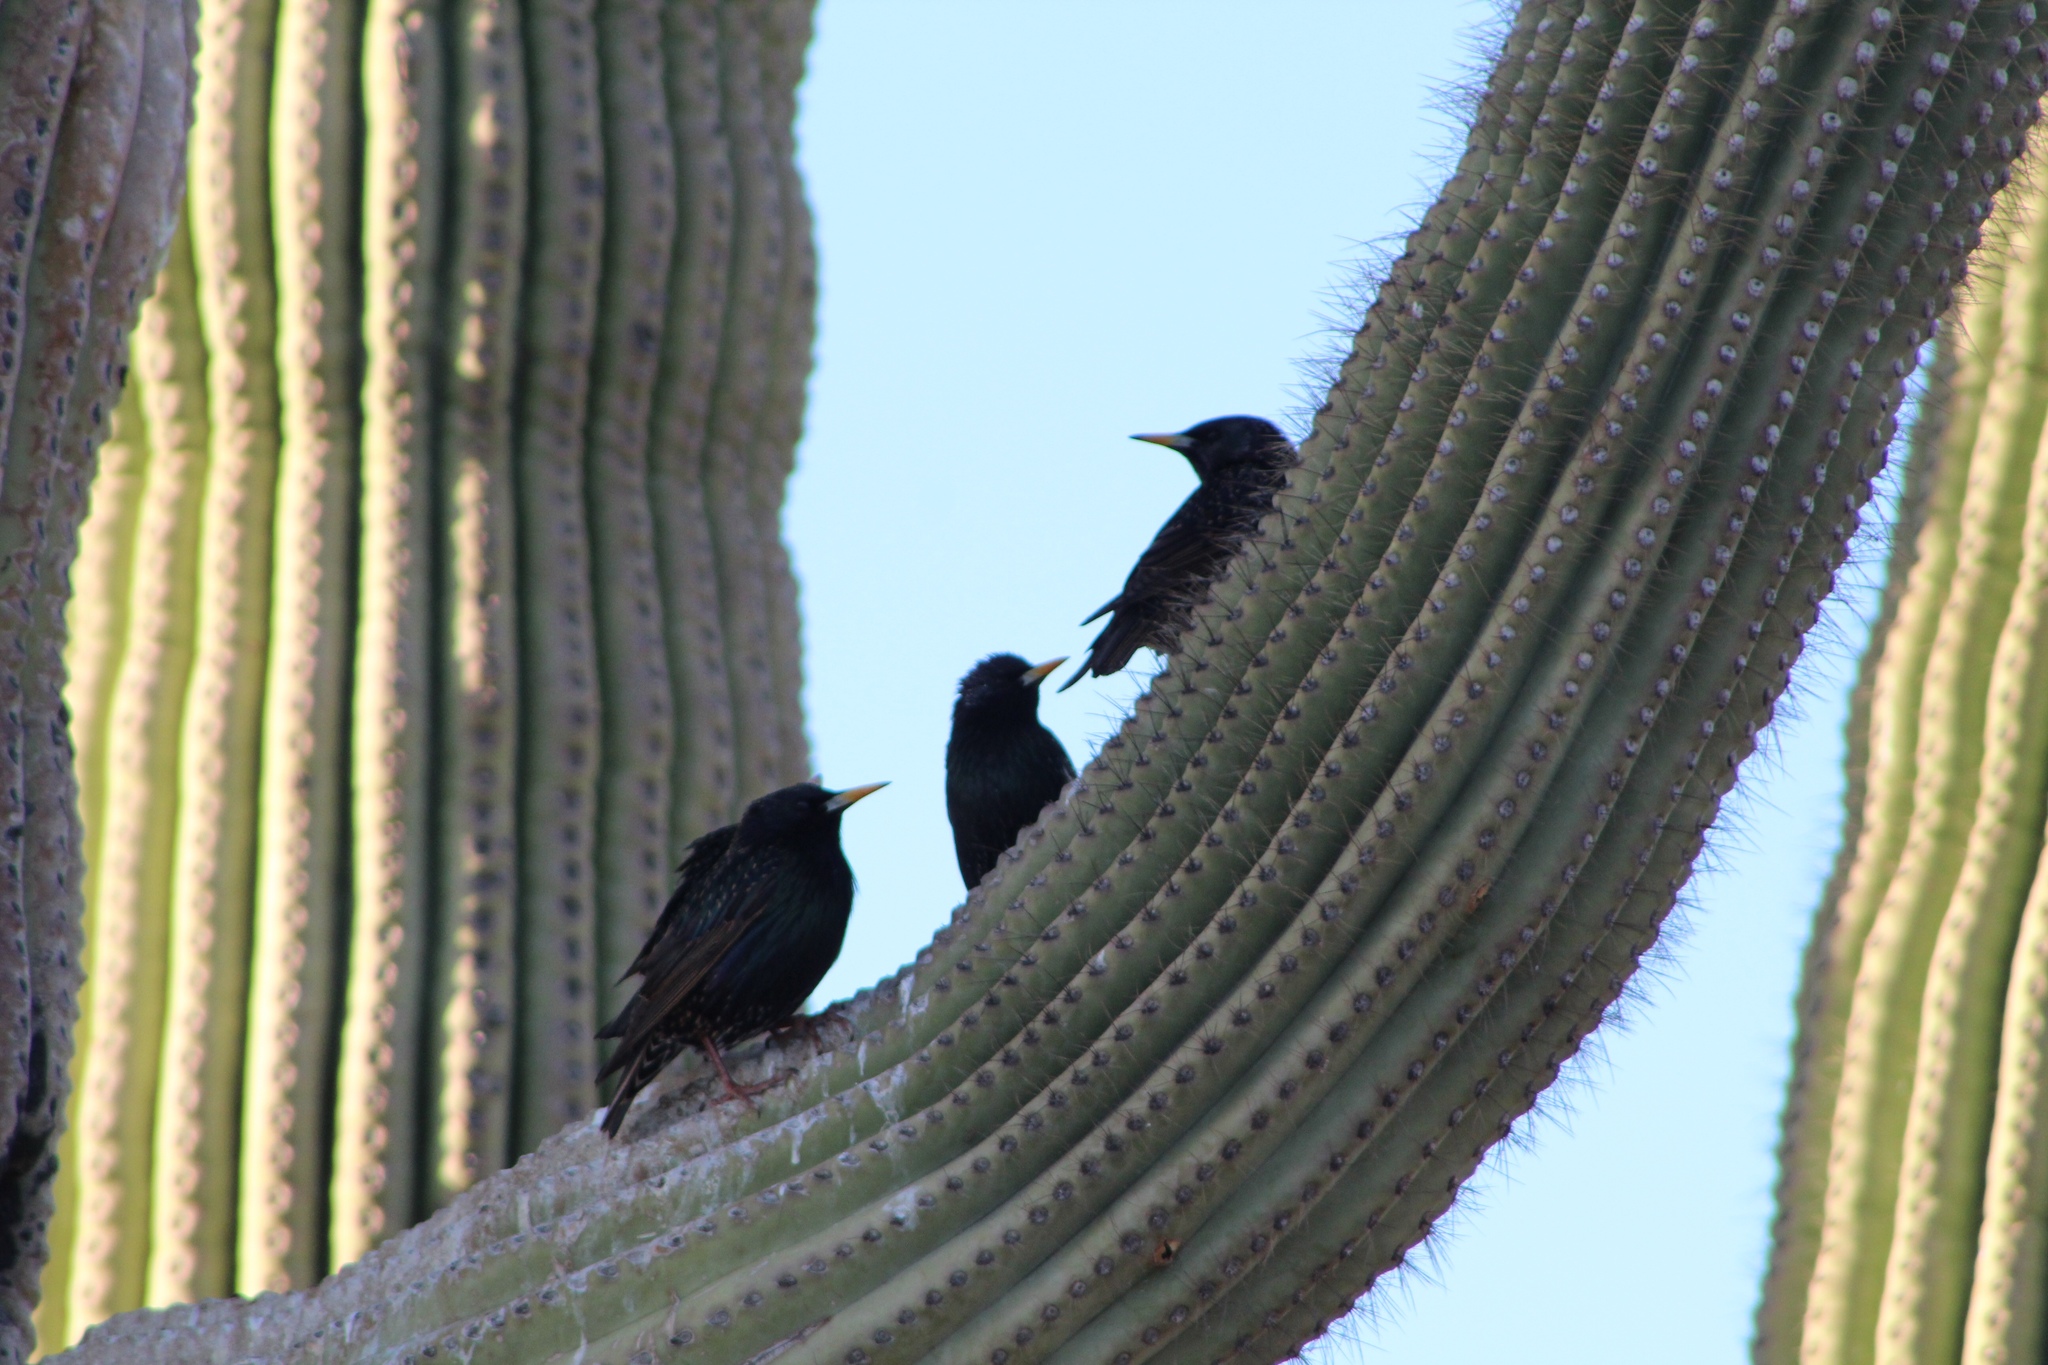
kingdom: Animalia
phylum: Chordata
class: Aves
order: Passeriformes
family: Sturnidae
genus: Sturnus
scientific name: Sturnus vulgaris
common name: Common starling
